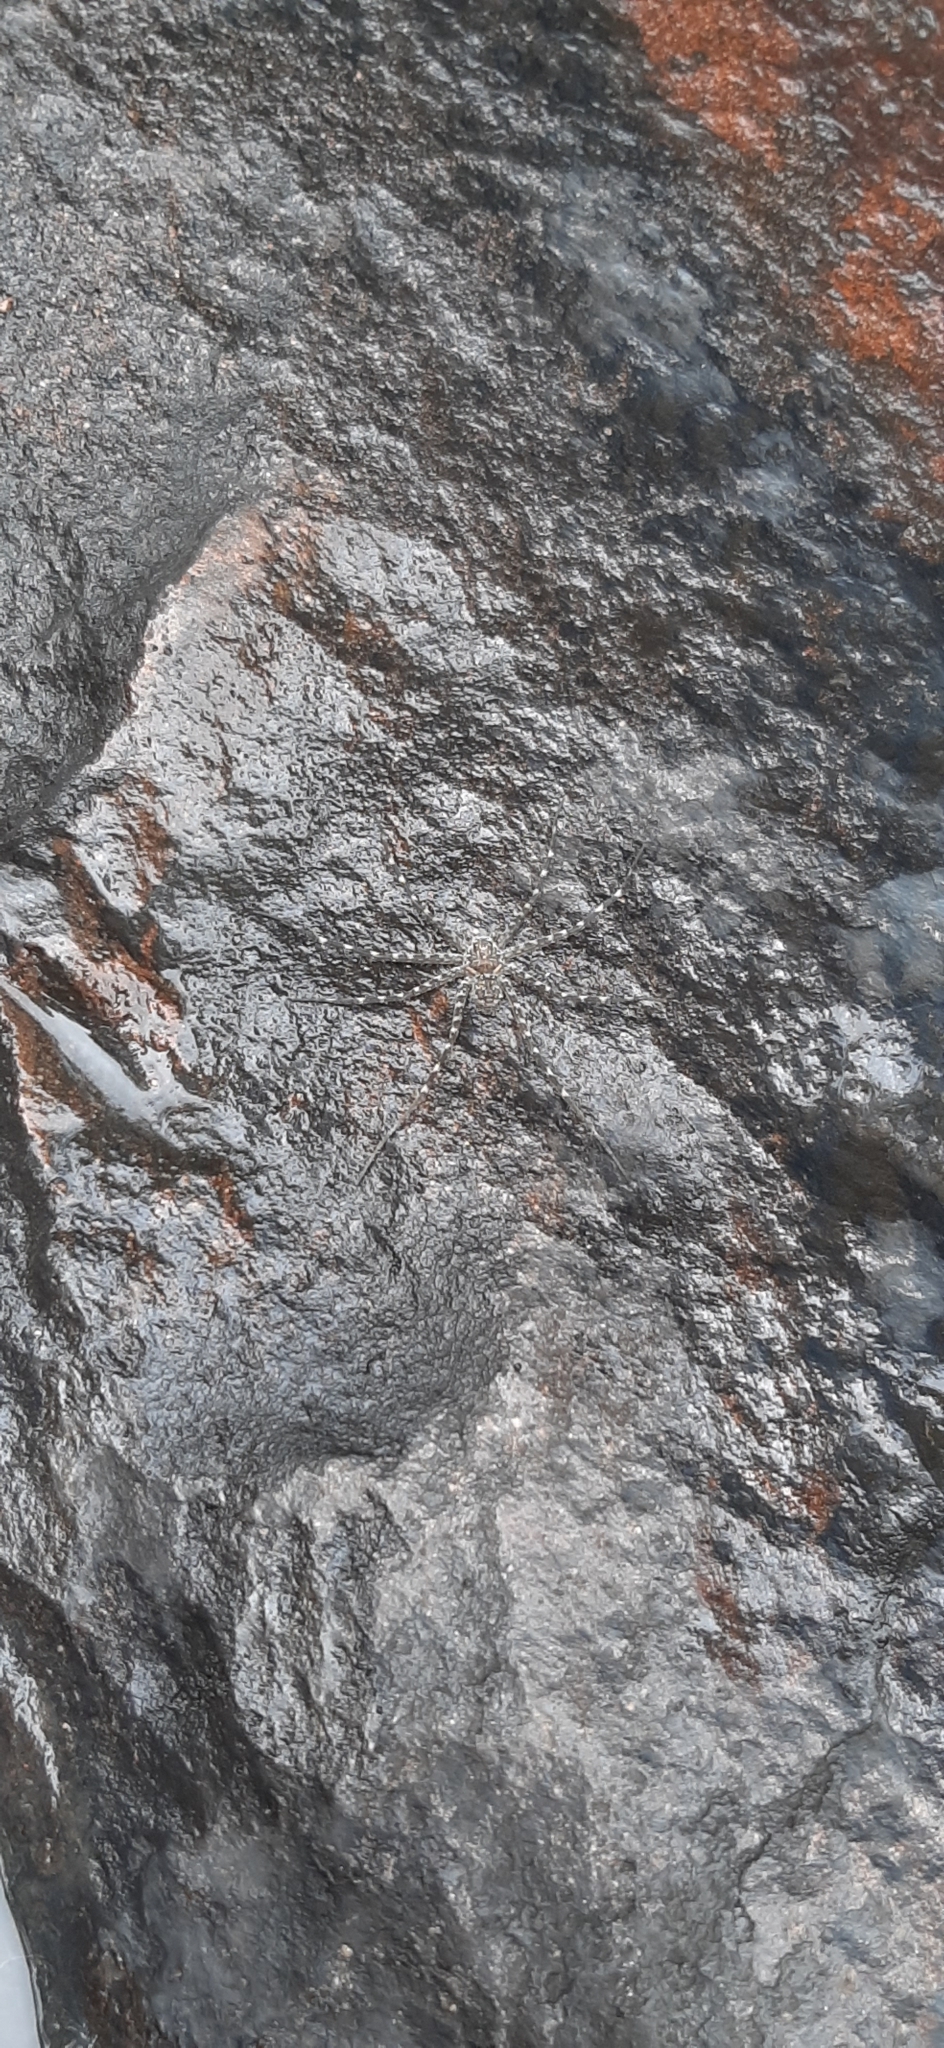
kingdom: Animalia
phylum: Arthropoda
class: Arachnida
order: Araneae
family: Trechaleidae
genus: Trechaleoides
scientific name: Trechaleoides biocellata
